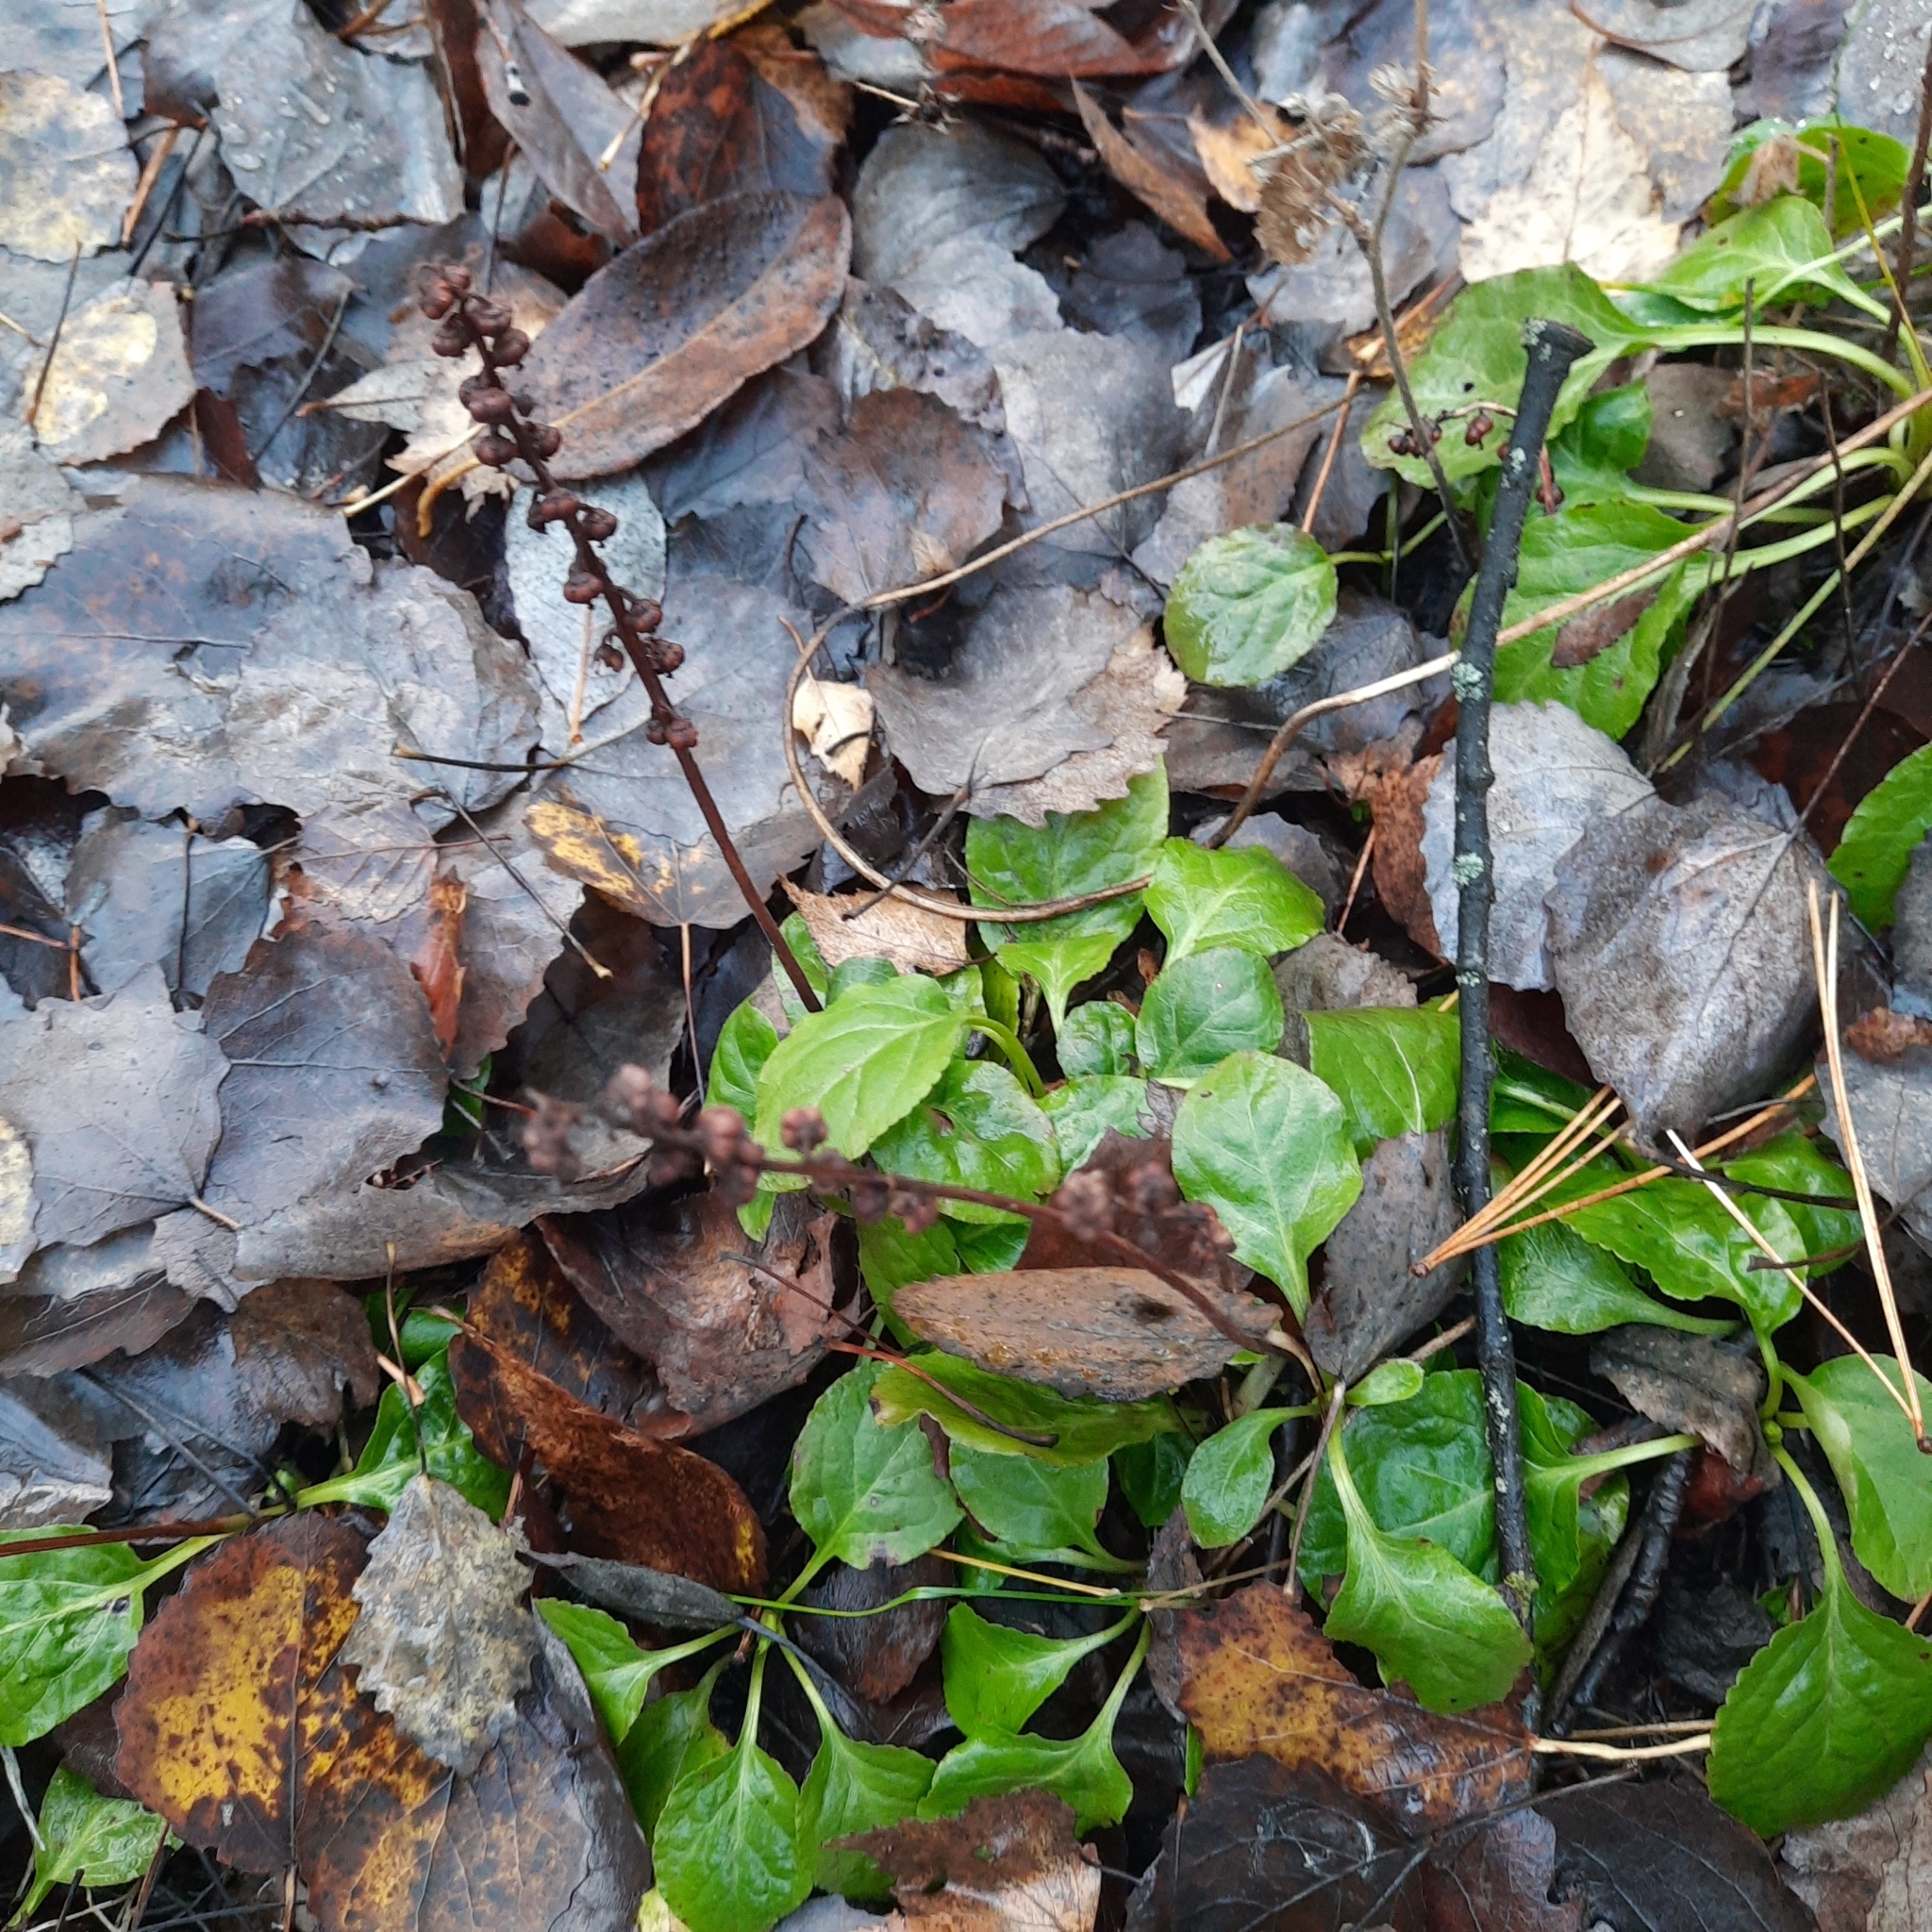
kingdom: Plantae
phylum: Tracheophyta
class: Magnoliopsida
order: Ericales
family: Ericaceae
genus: Pyrola
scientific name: Pyrola minor
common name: Common wintergreen
